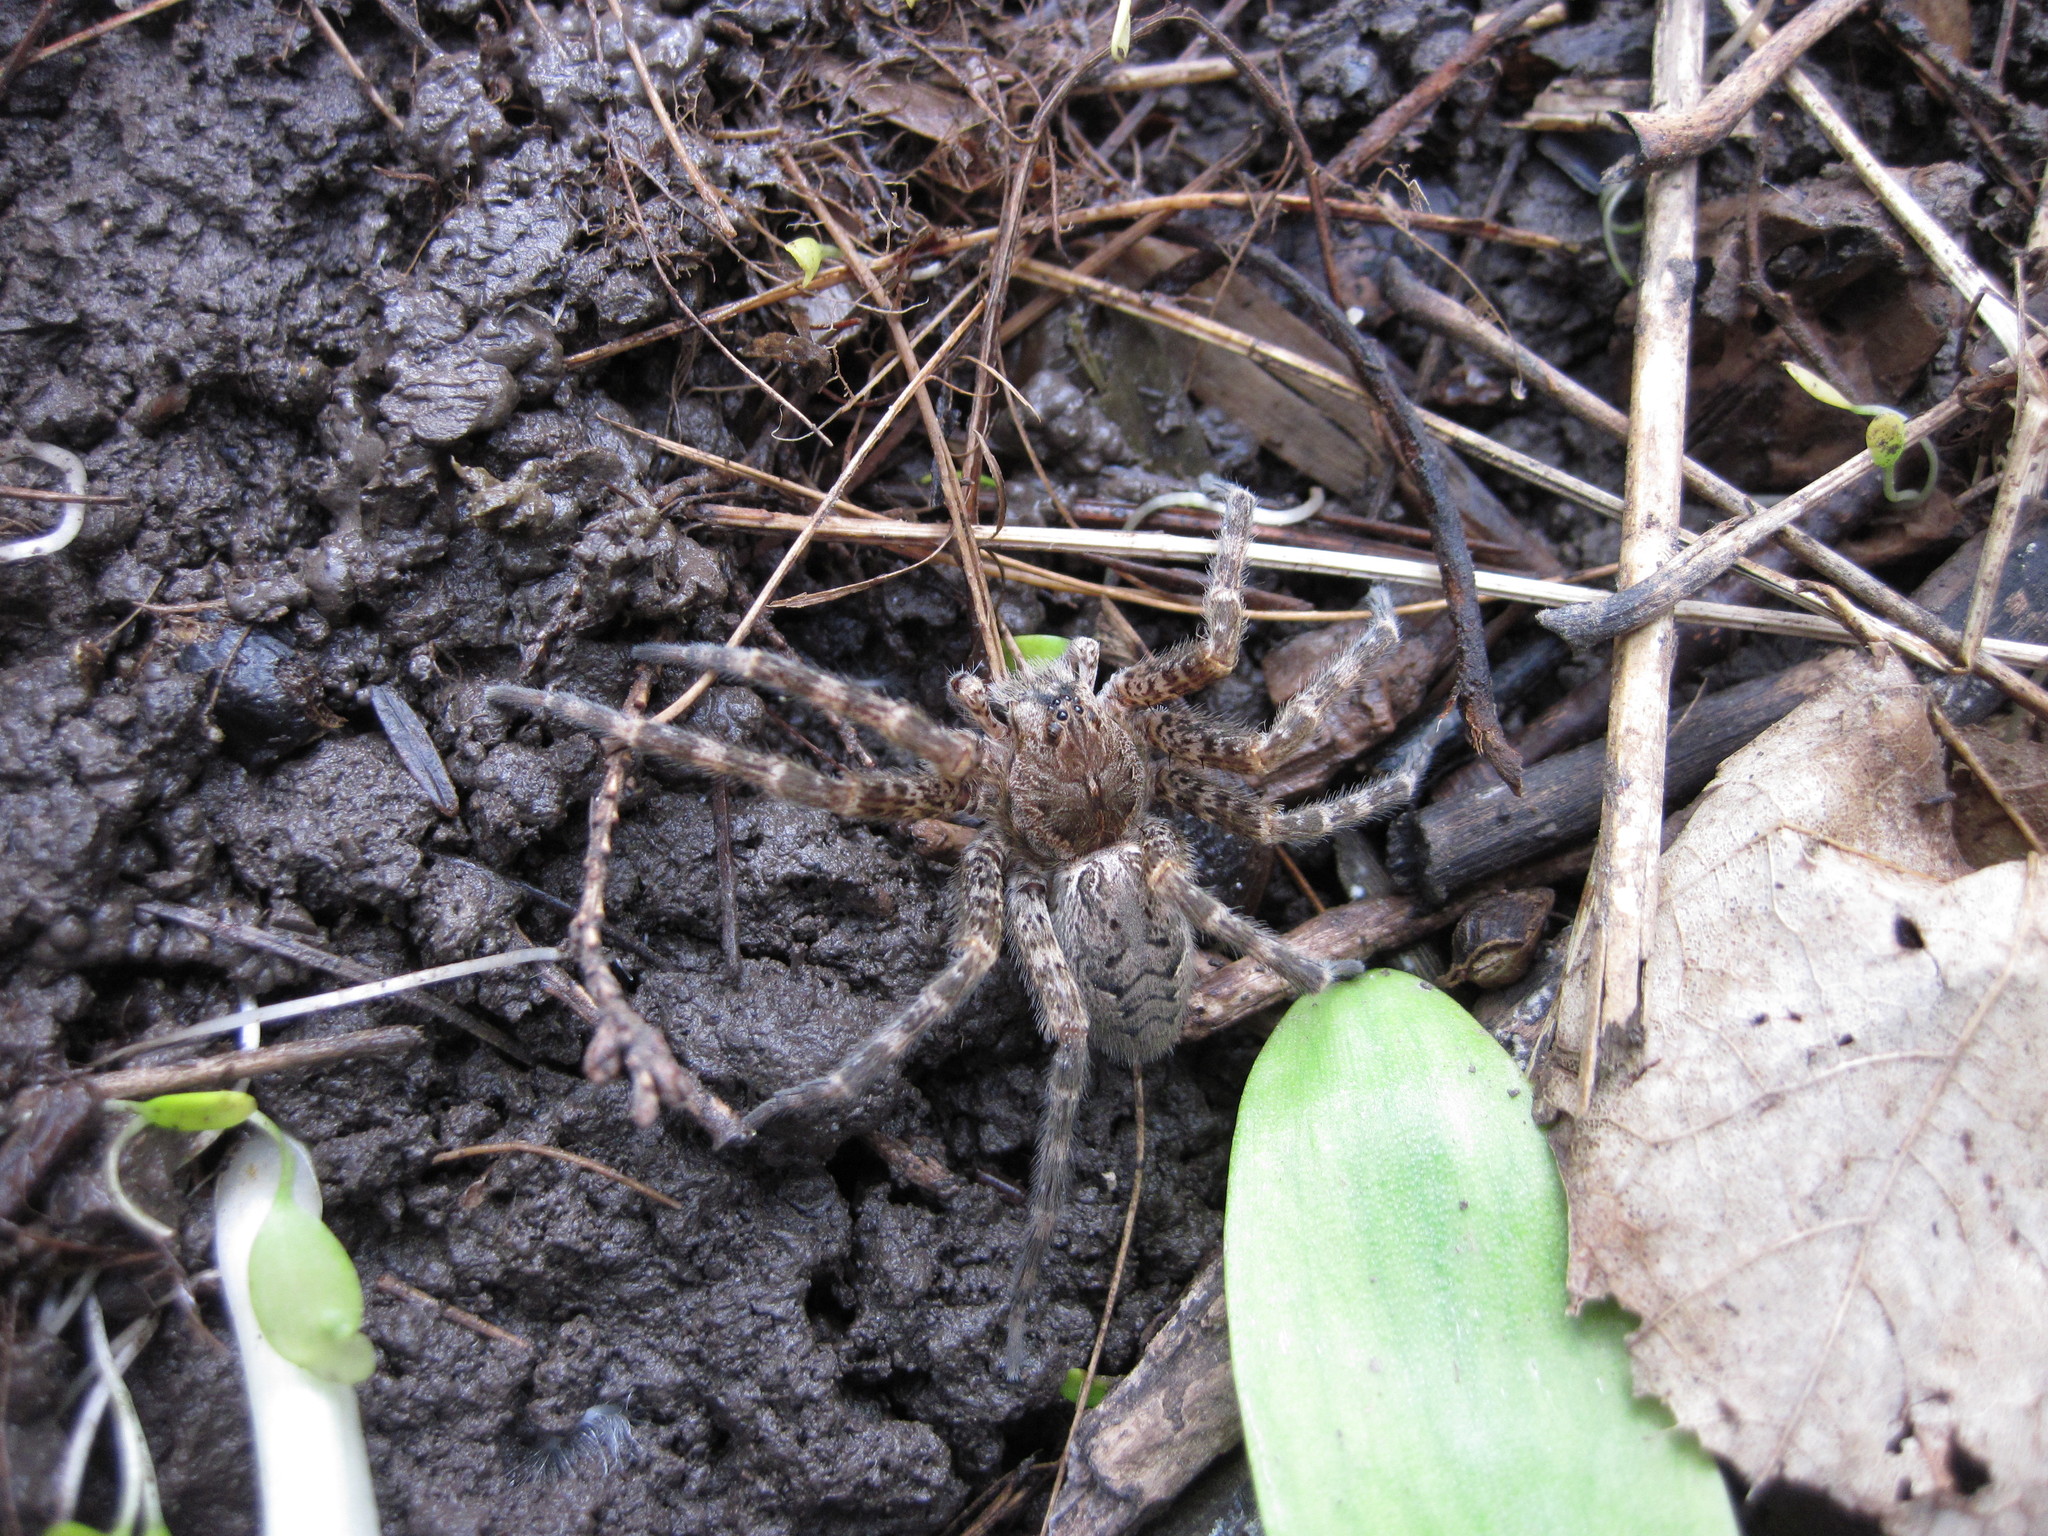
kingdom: Animalia
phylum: Arthropoda
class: Arachnida
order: Araneae
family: Pisauridae
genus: Dolomedes
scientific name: Dolomedes tenebrosus
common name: Dark fishing spider
